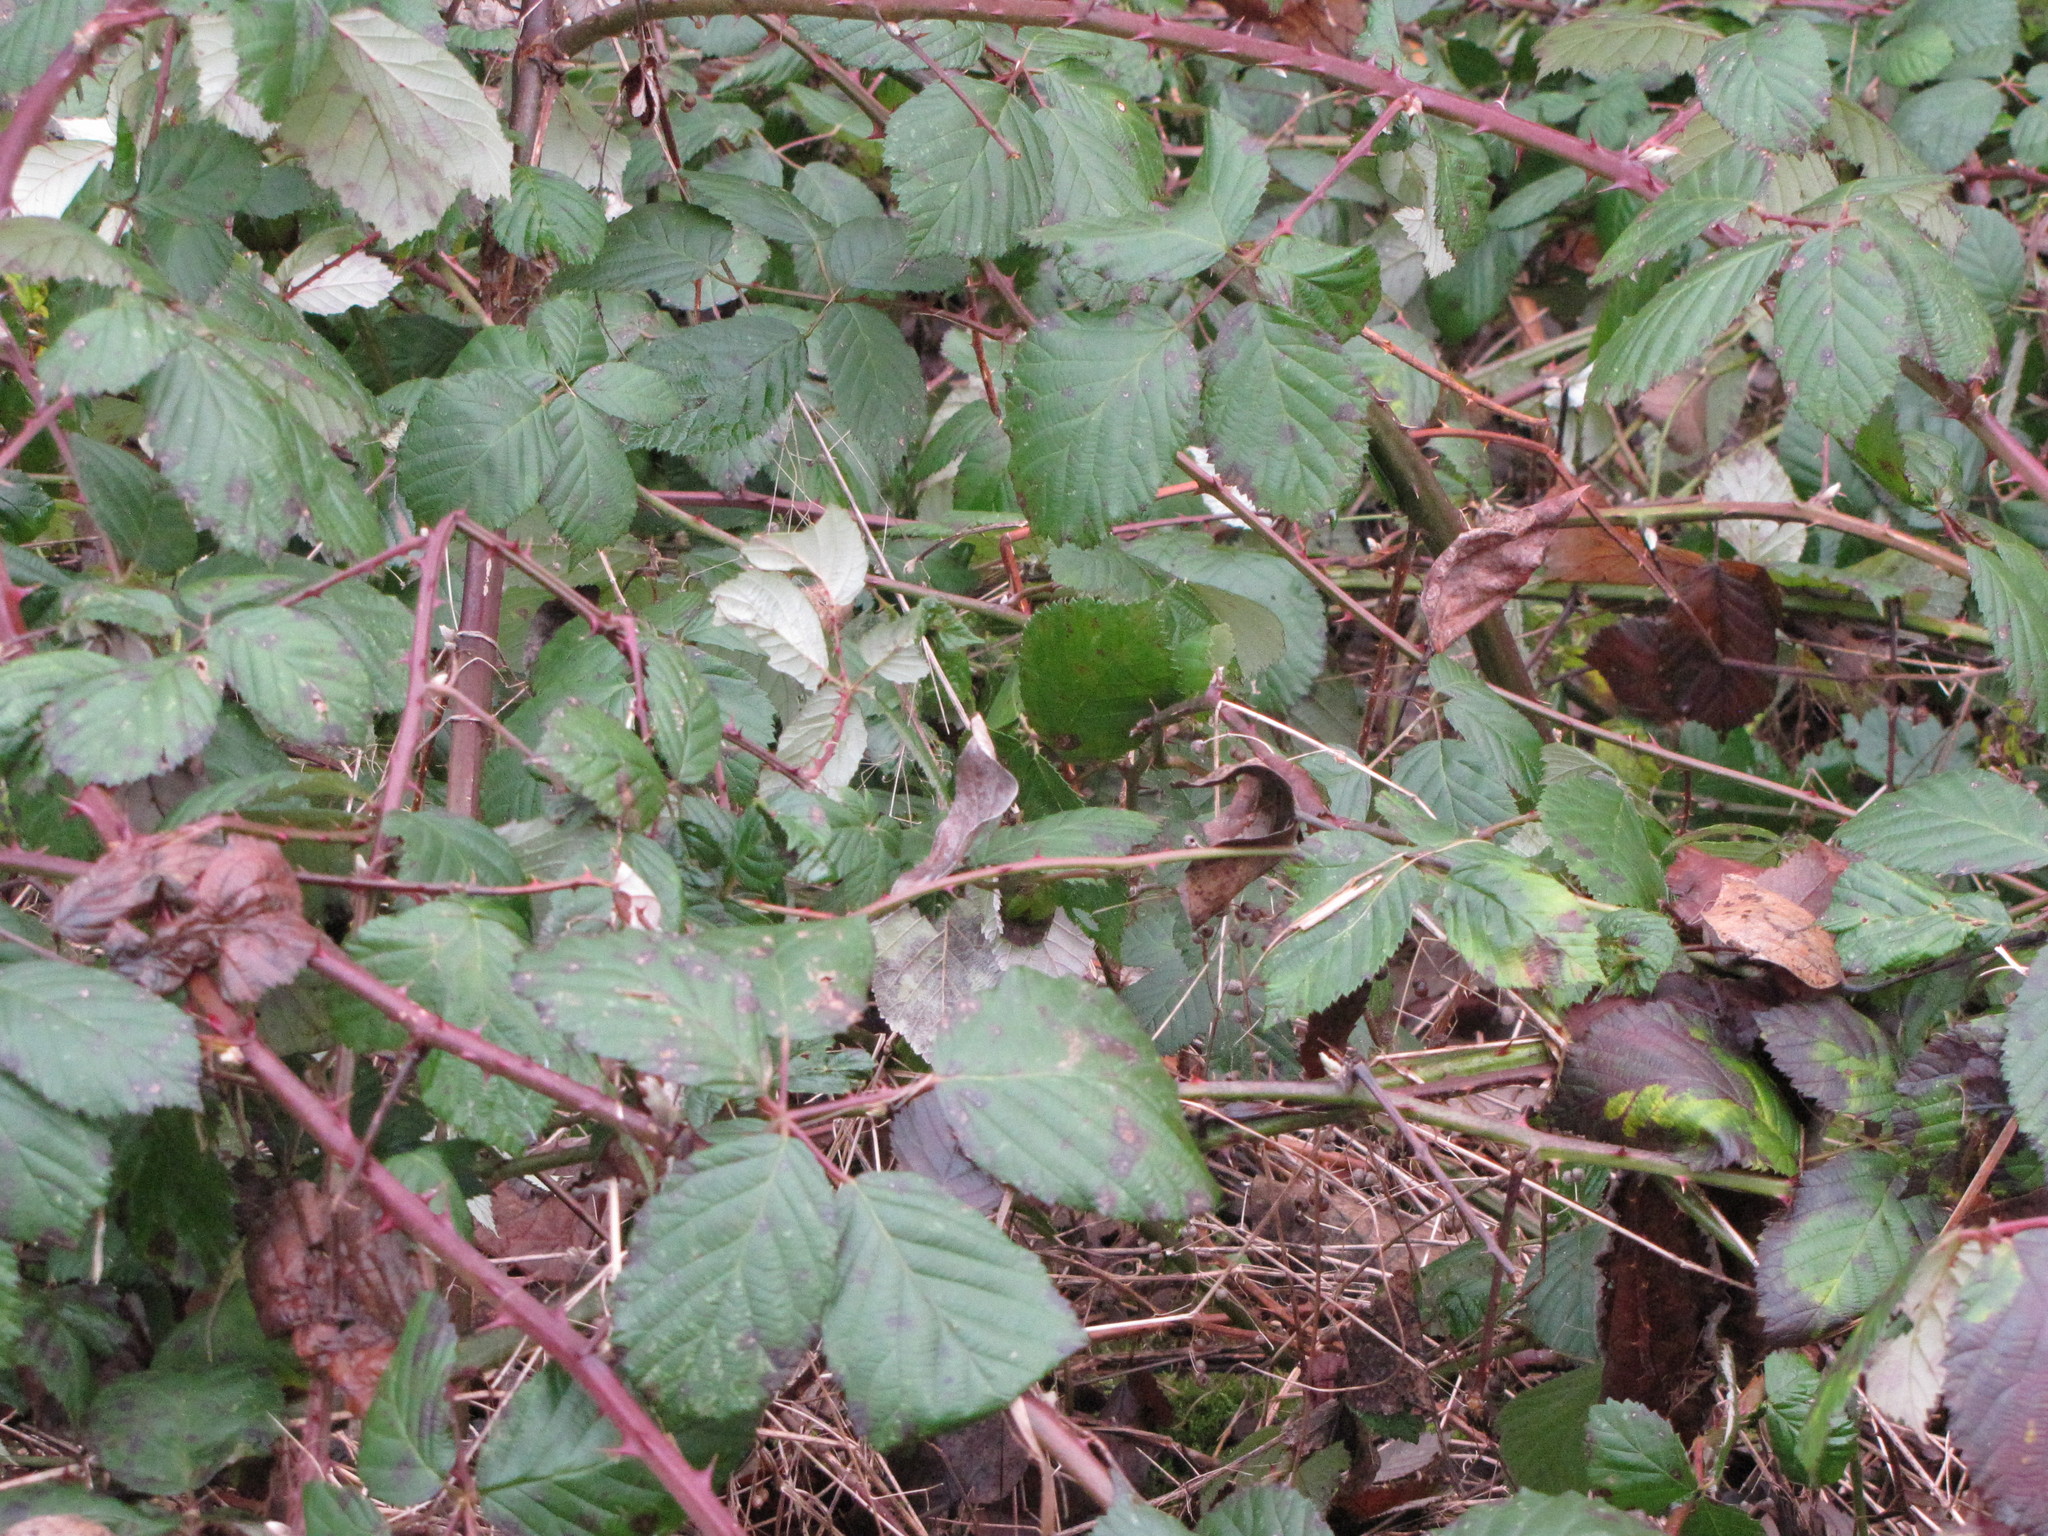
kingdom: Plantae
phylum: Tracheophyta
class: Magnoliopsida
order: Rosales
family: Rosaceae
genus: Rubus
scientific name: Rubus bifrons
